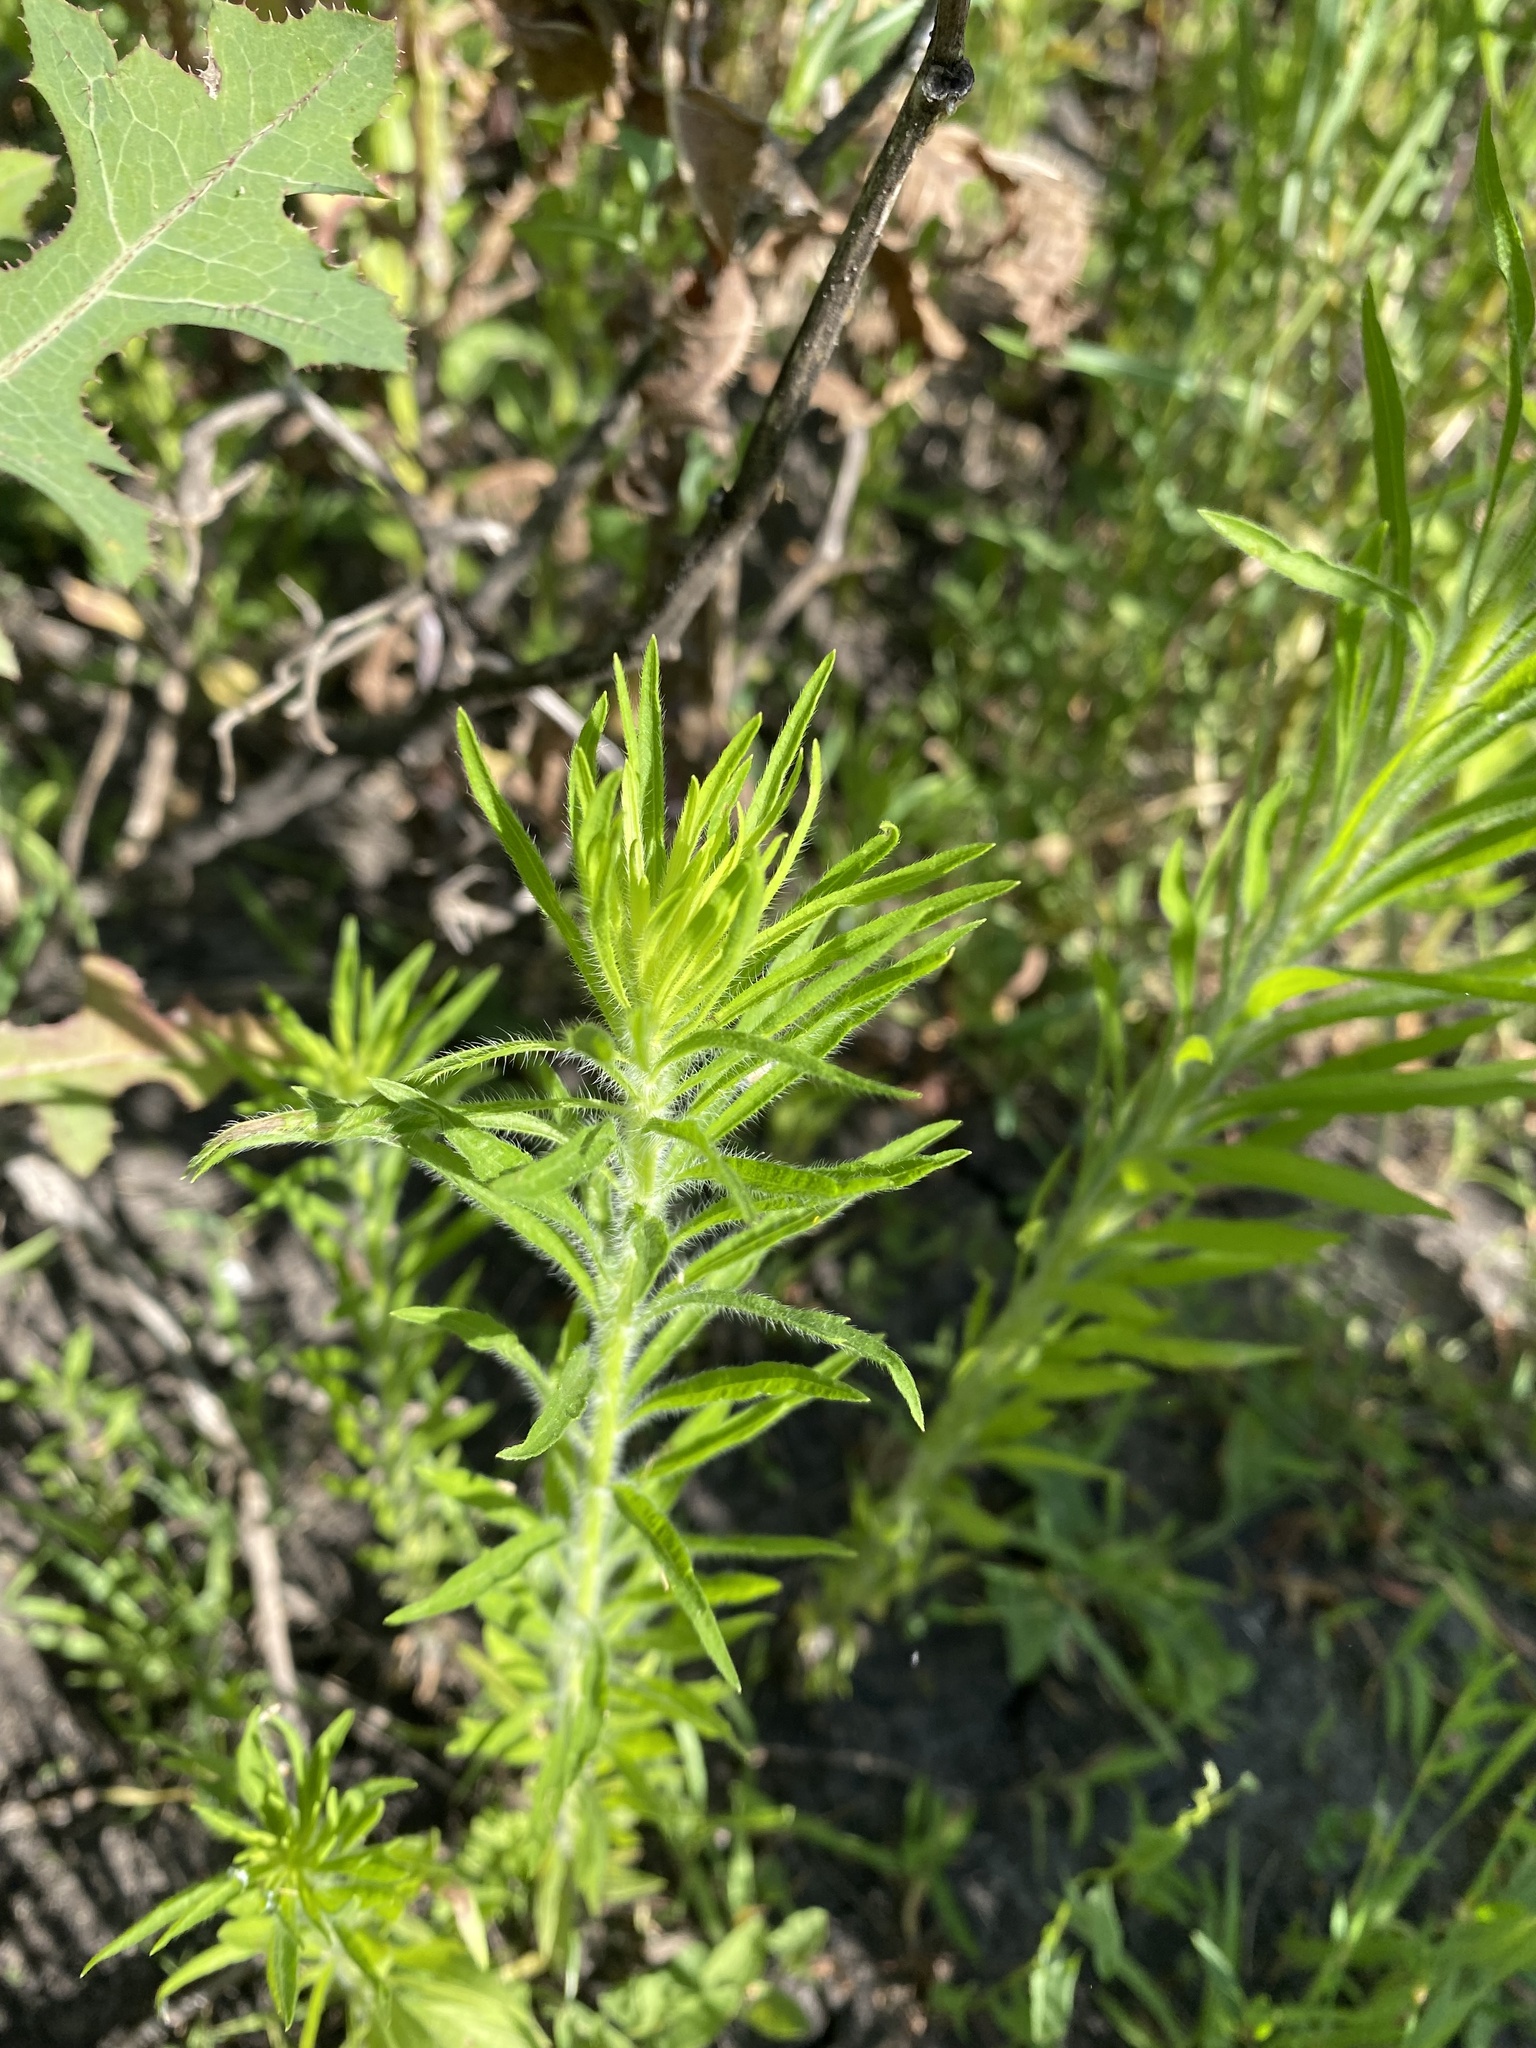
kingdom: Plantae
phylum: Tracheophyta
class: Magnoliopsida
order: Asterales
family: Asteraceae
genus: Erigeron
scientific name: Erigeron canadensis
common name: Canadian fleabane
